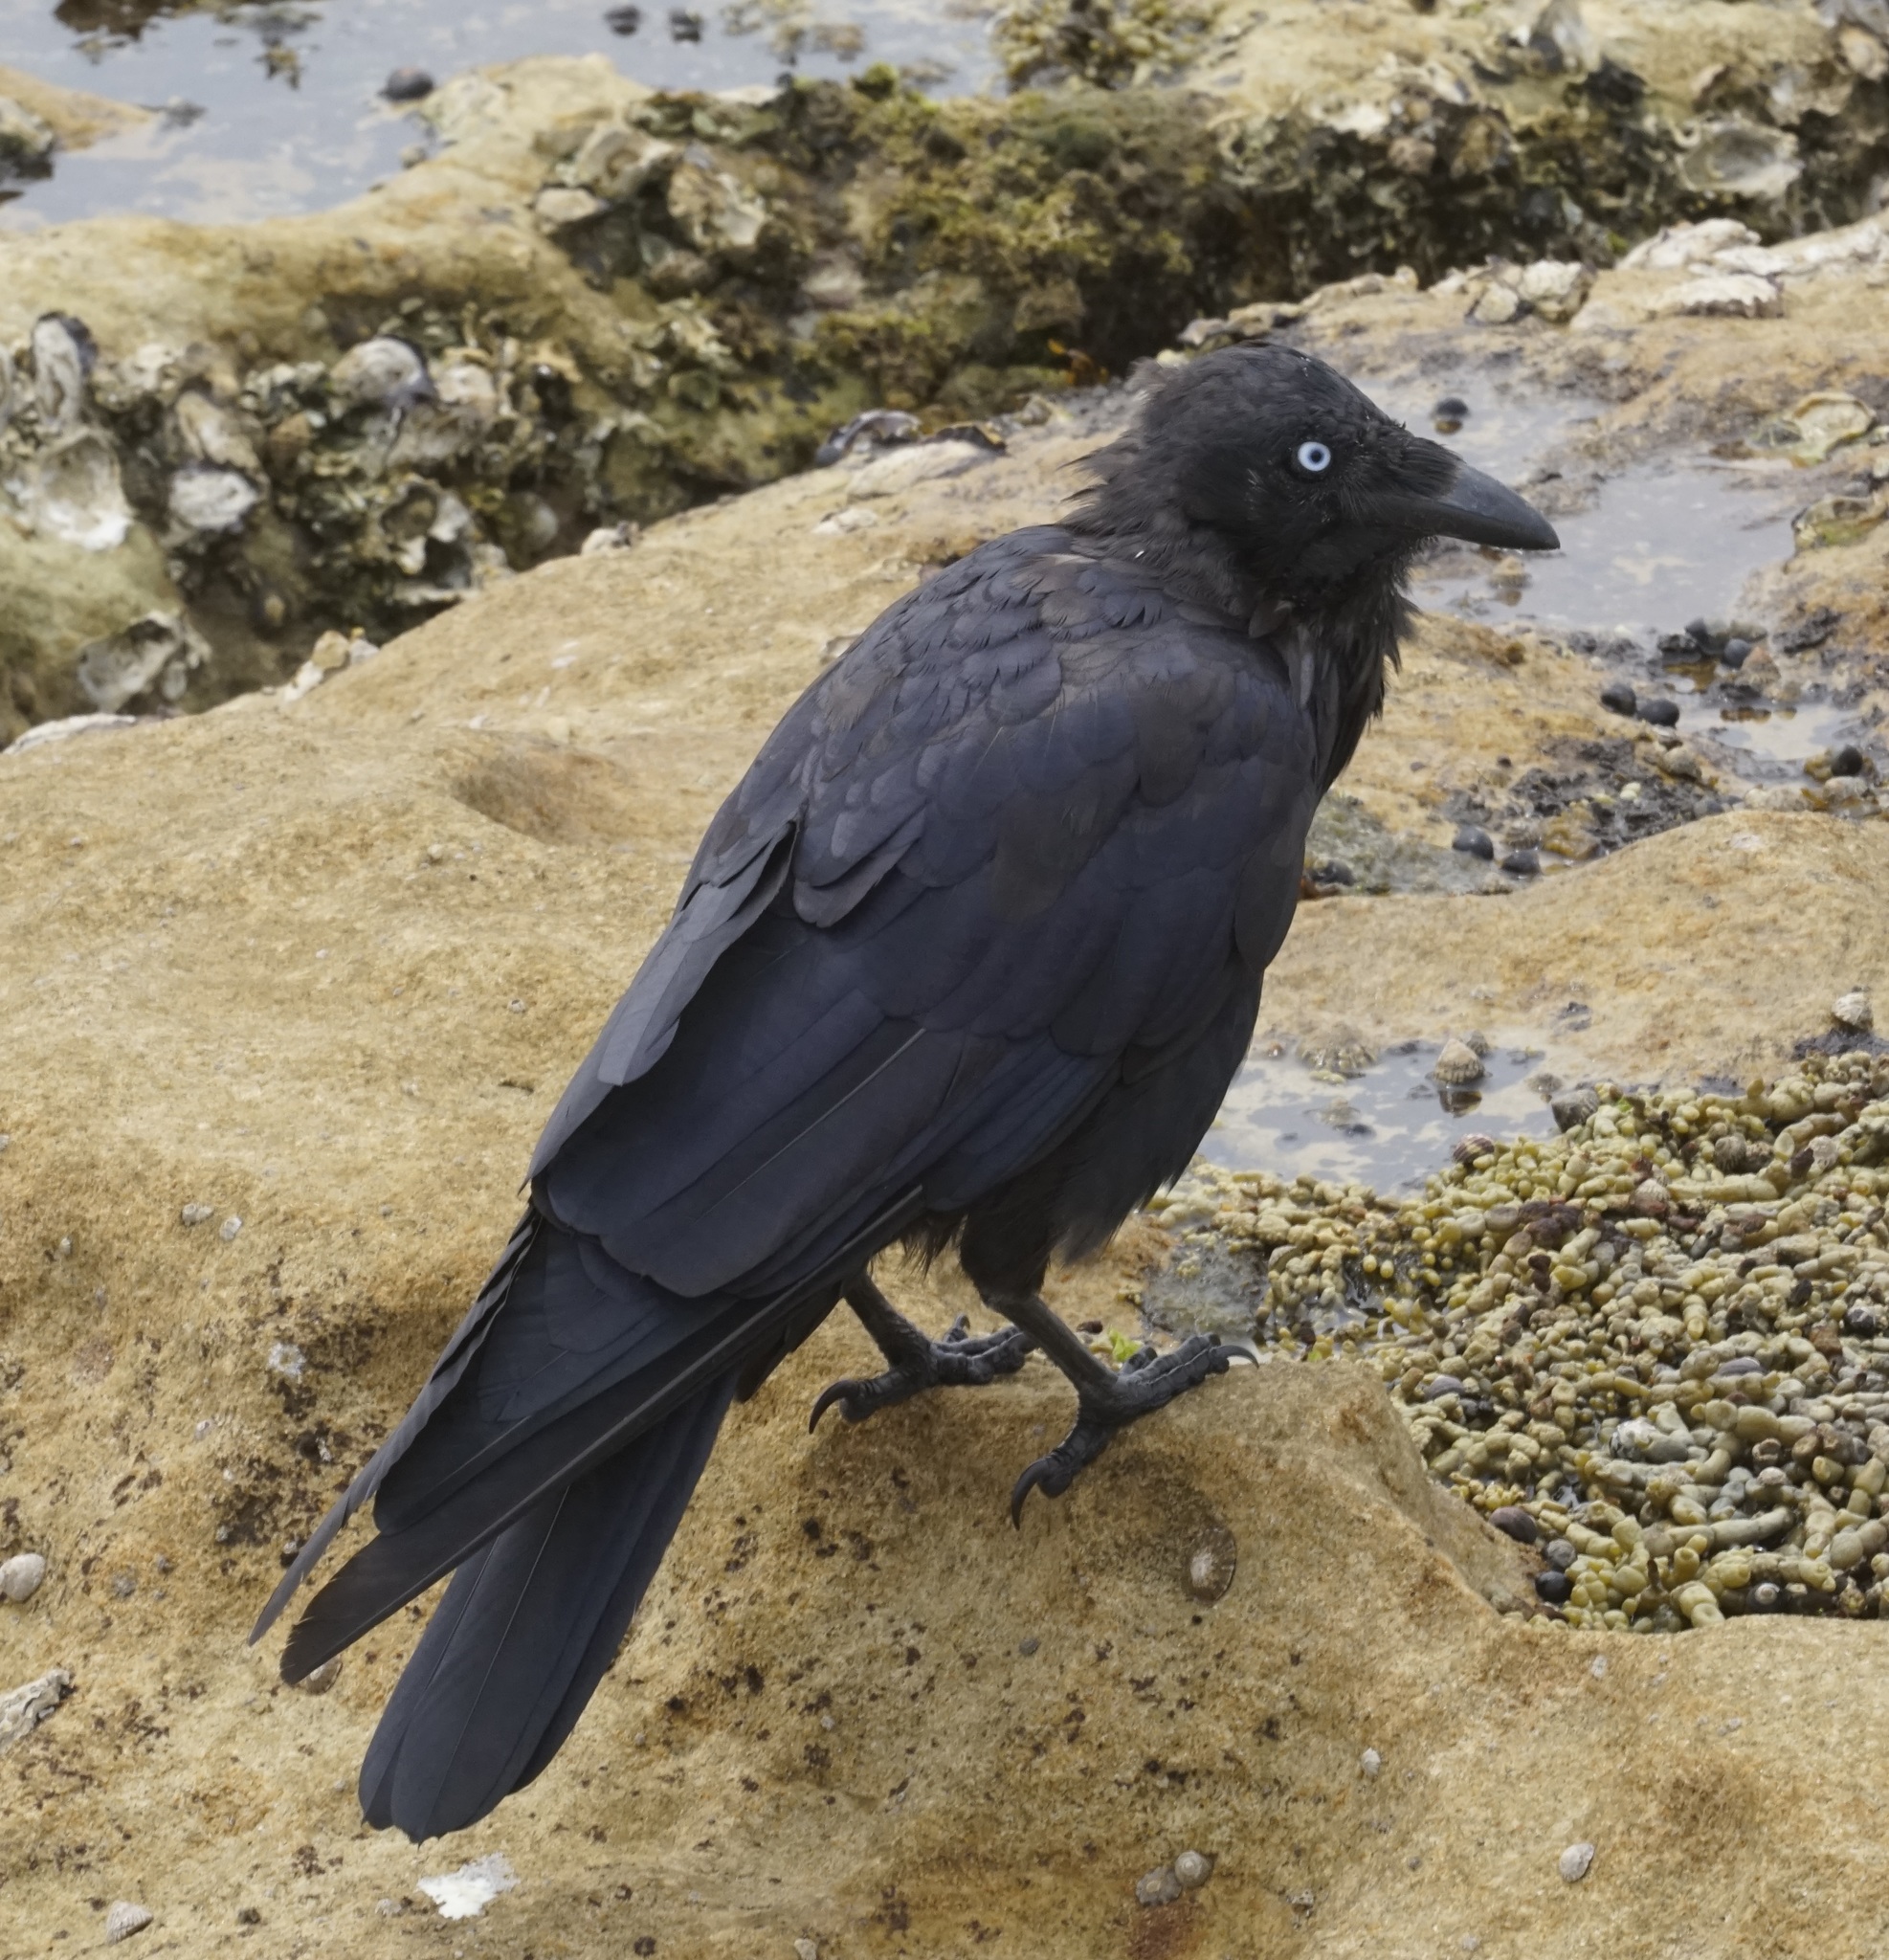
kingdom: Animalia
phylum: Chordata
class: Aves
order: Passeriformes
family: Corvidae
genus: Corvus
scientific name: Corvus coronoides
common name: Australian raven
